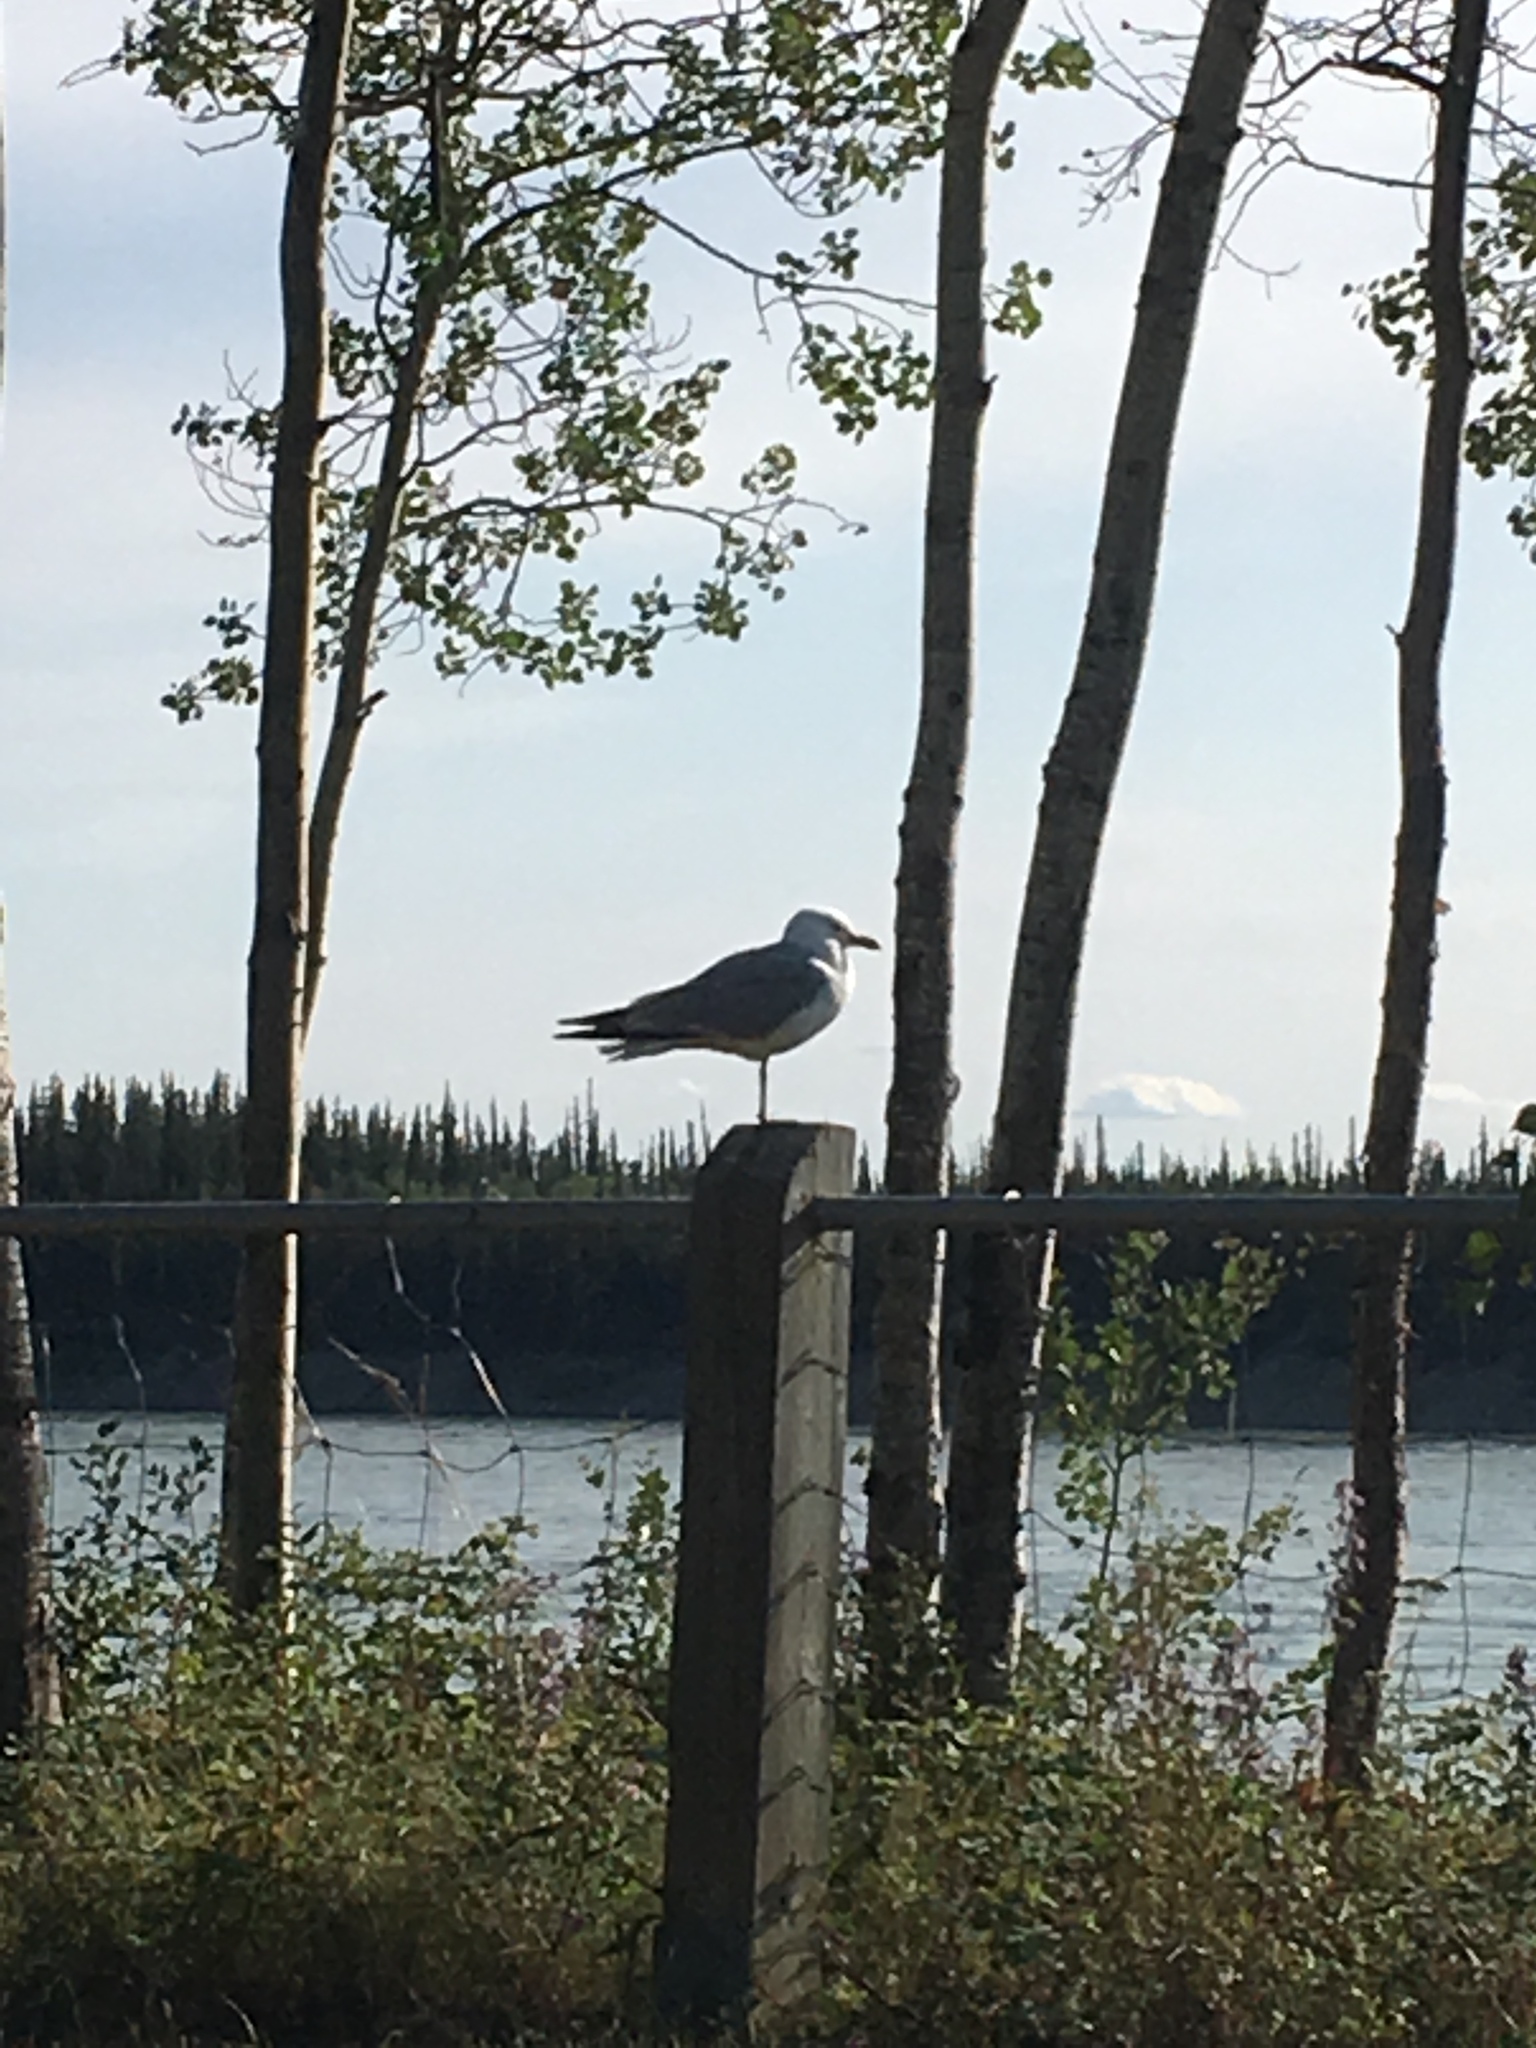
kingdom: Animalia
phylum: Chordata
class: Aves
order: Charadriiformes
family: Laridae
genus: Larus
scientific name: Larus delawarensis
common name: Ring-billed gull
